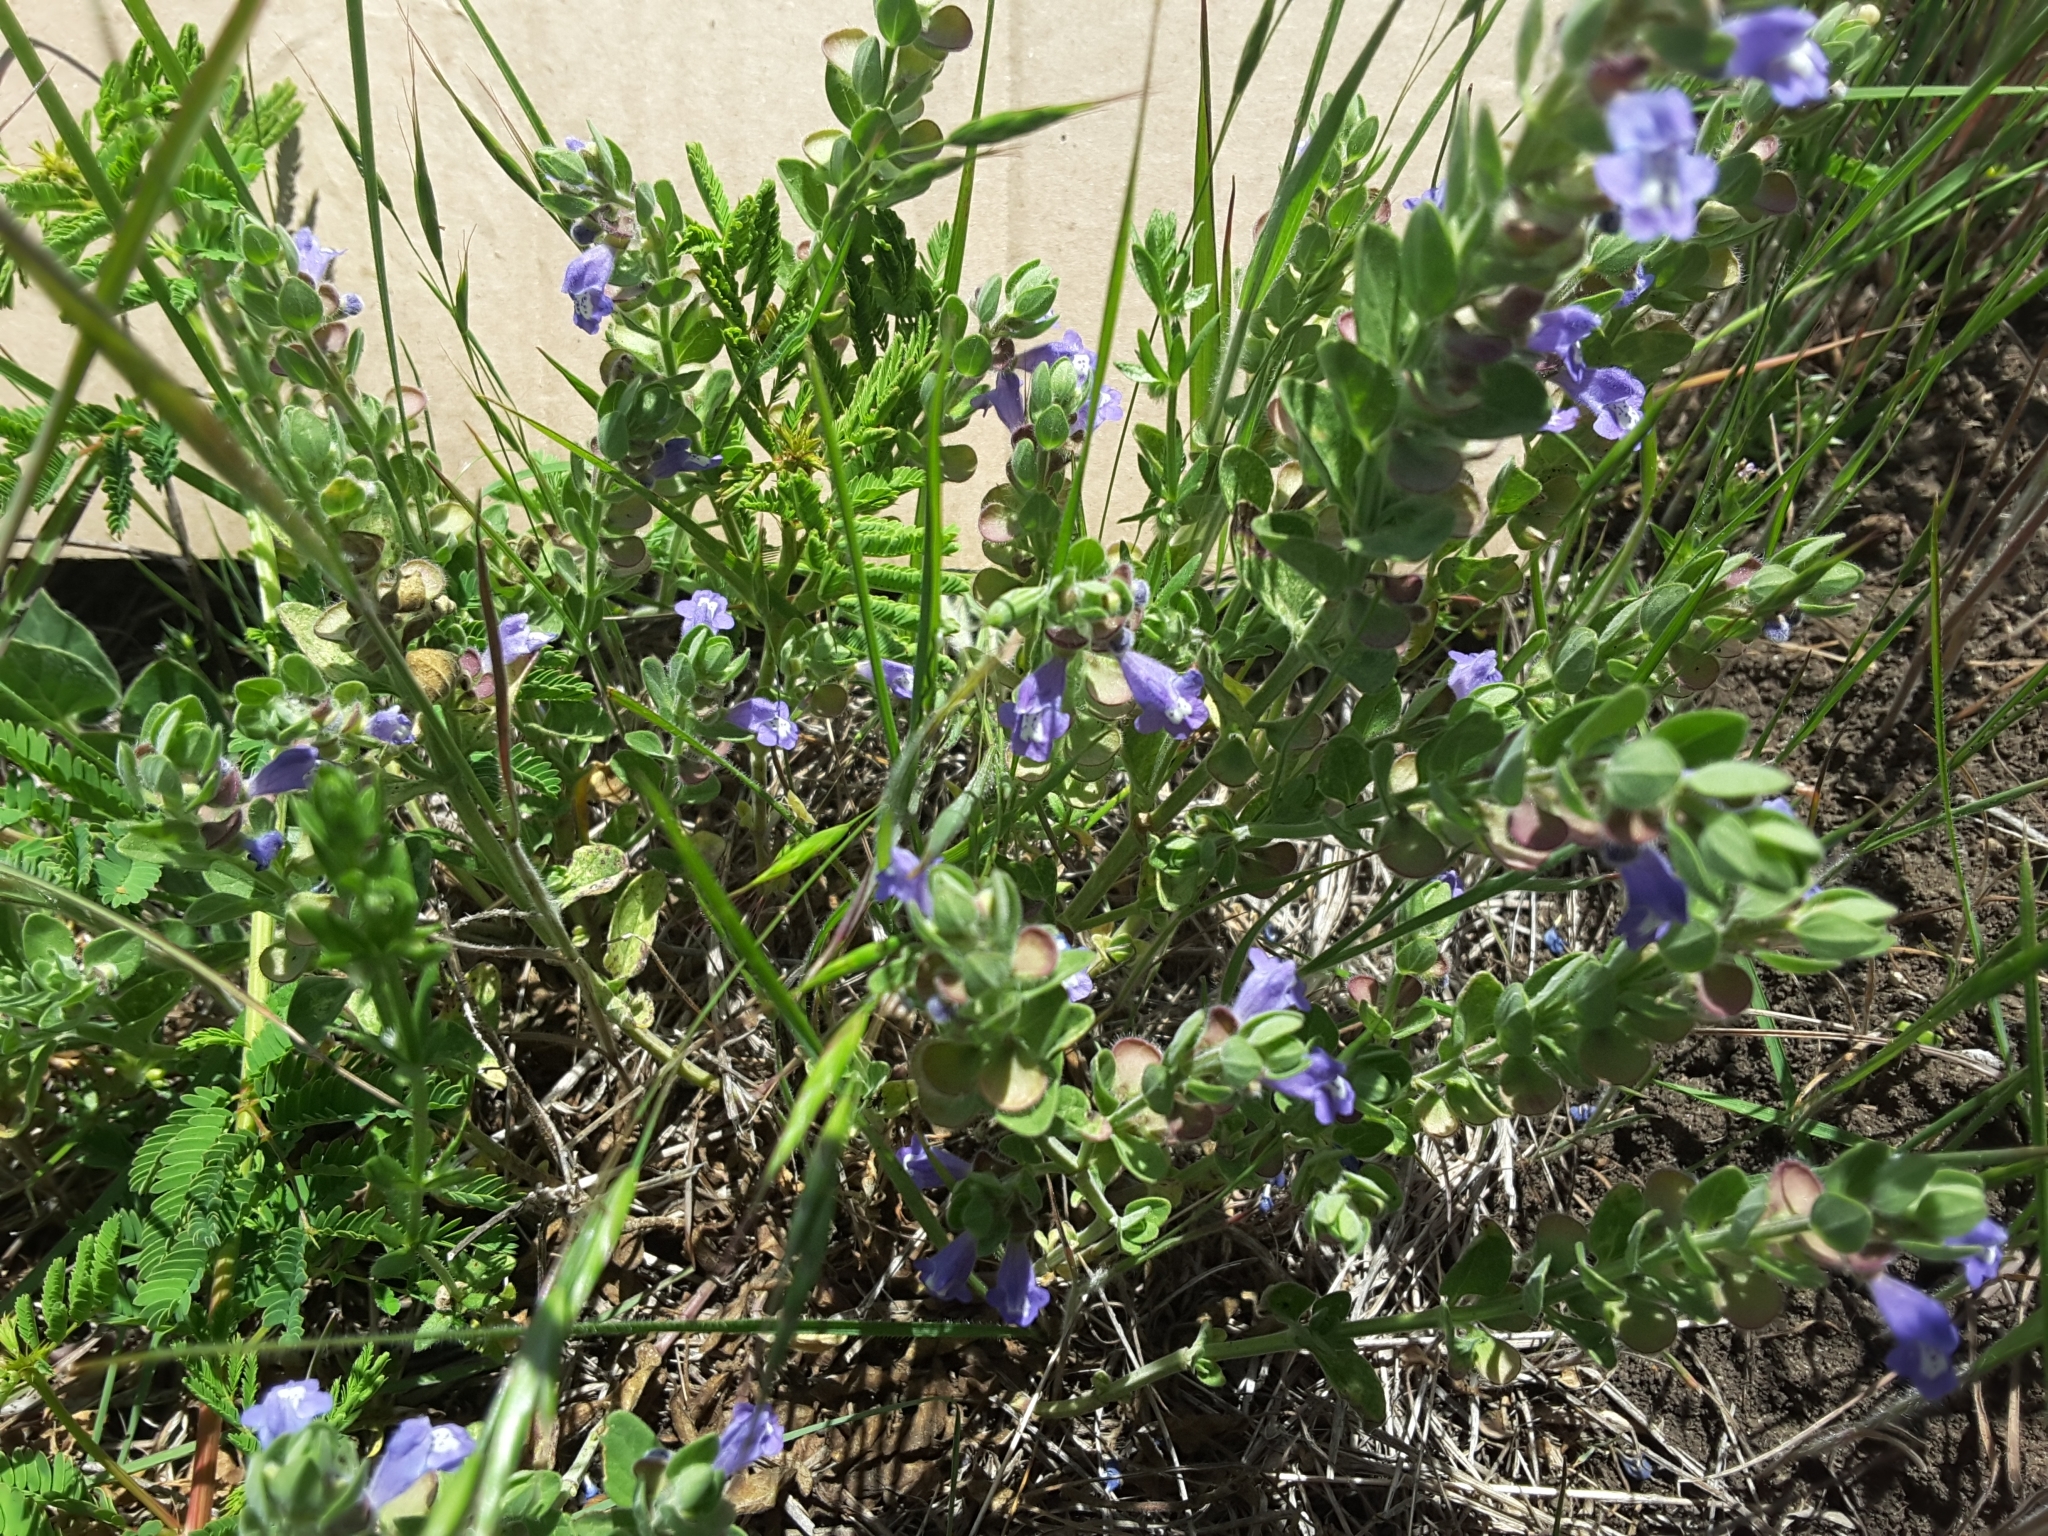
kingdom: Plantae
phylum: Tracheophyta
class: Magnoliopsida
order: Lamiales
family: Lamiaceae
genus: Scutellaria
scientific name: Scutellaria drummondii
